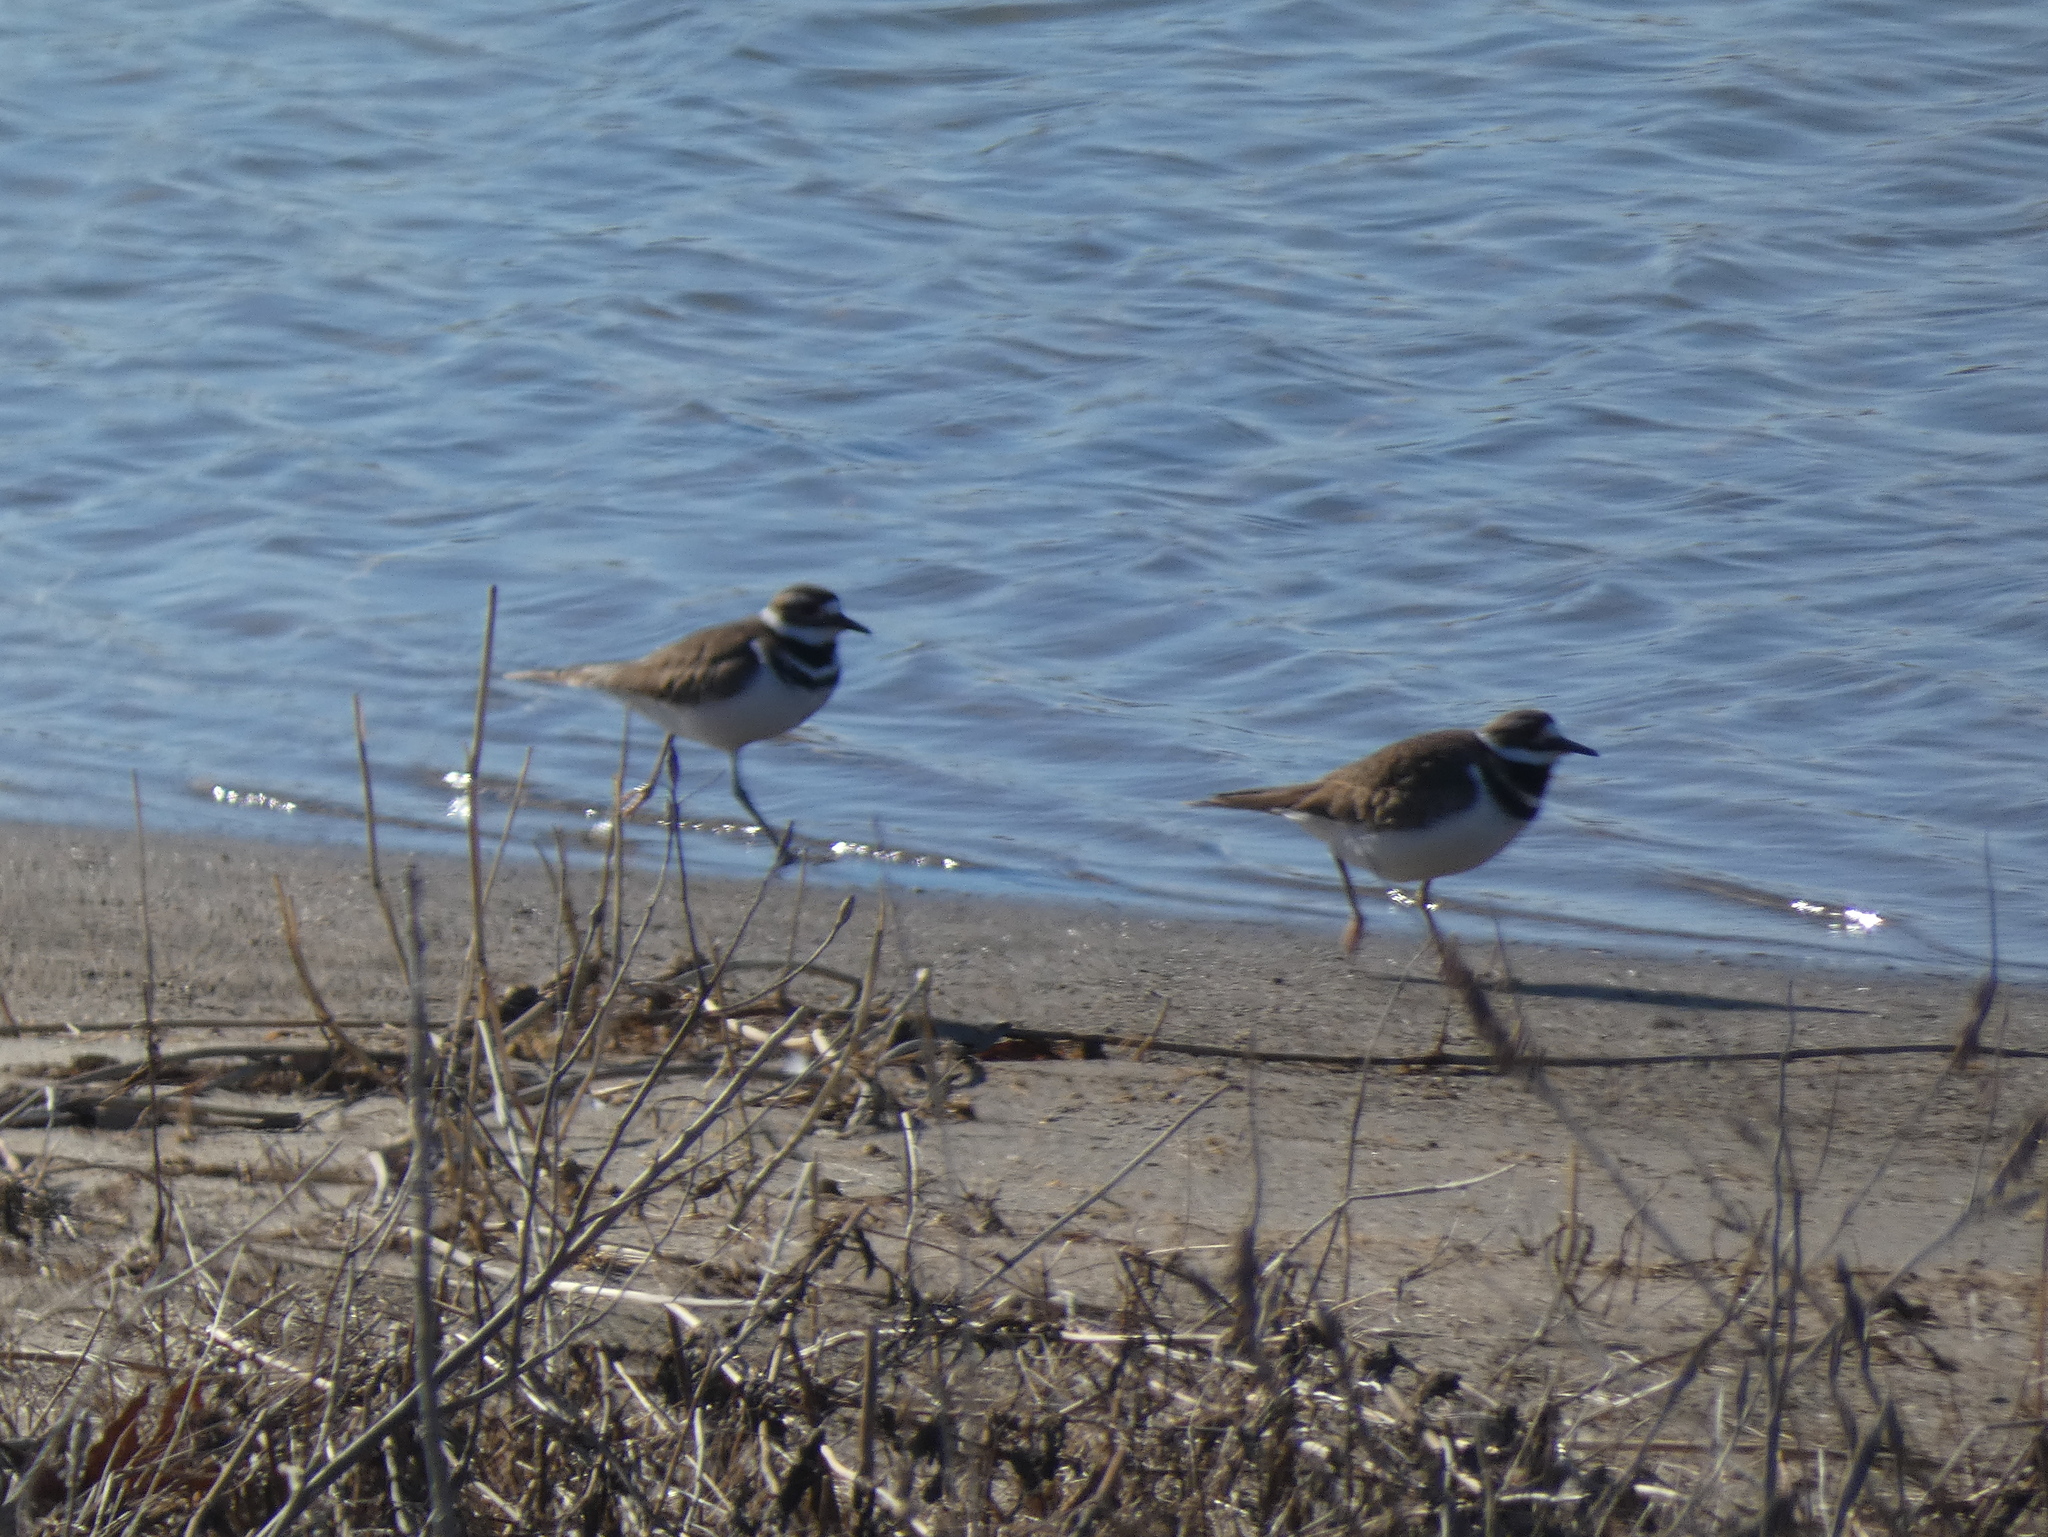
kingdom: Animalia
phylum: Chordata
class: Aves
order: Charadriiformes
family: Charadriidae
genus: Charadrius
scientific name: Charadrius vociferus
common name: Killdeer
